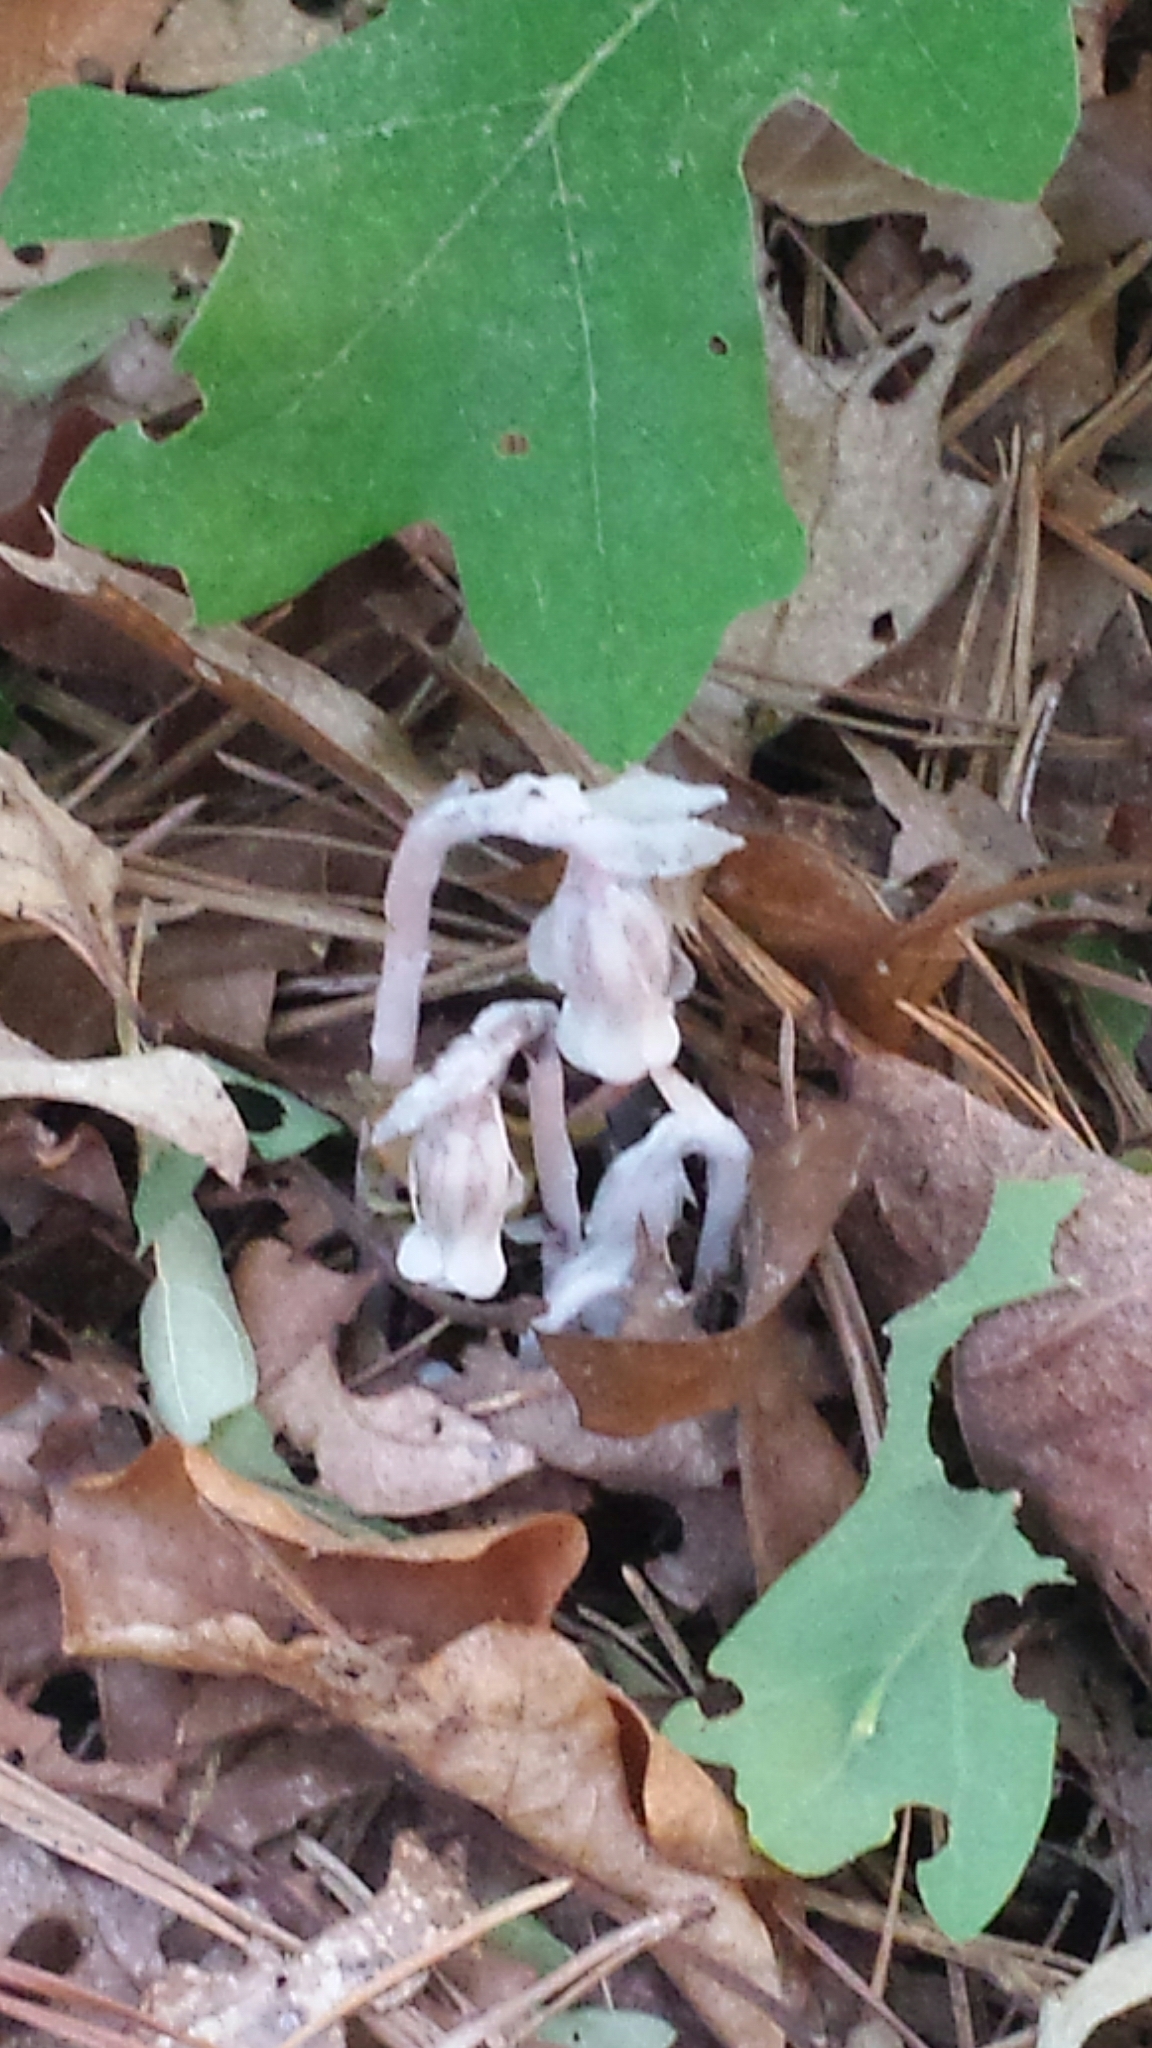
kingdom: Plantae
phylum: Tracheophyta
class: Magnoliopsida
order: Ericales
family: Ericaceae
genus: Monotropa
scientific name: Monotropa uniflora
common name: Convulsion root
